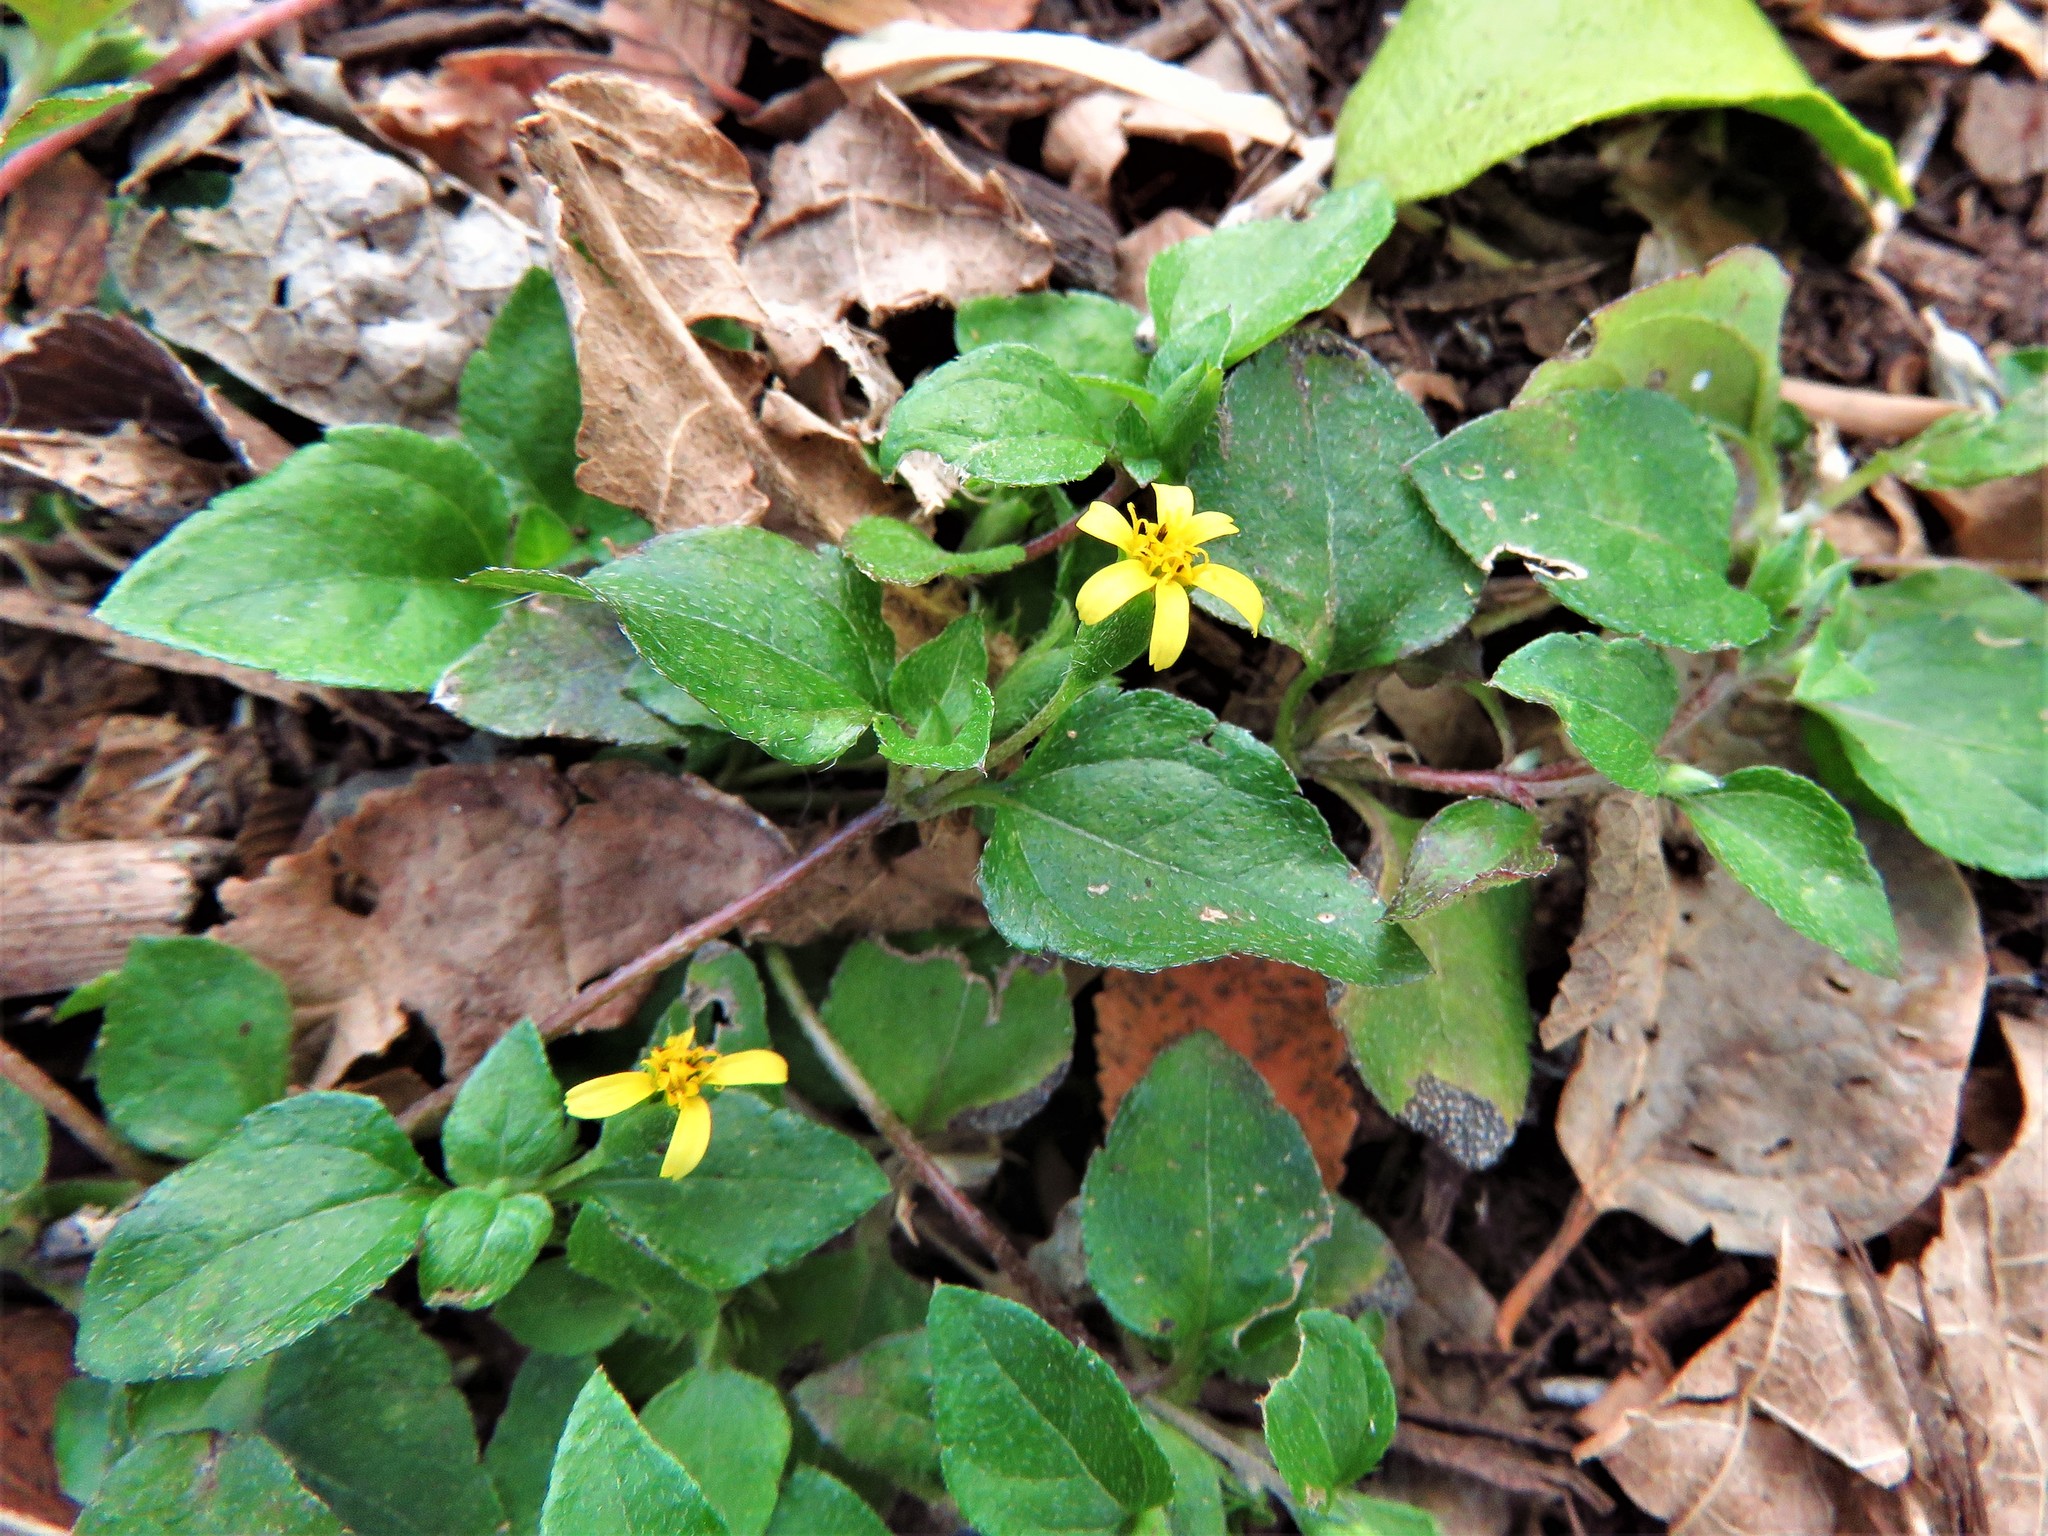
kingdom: Plantae
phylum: Tracheophyta
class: Magnoliopsida
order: Asterales
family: Asteraceae
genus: Calyptocarpus
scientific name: Calyptocarpus vialis
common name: Straggler daisy
